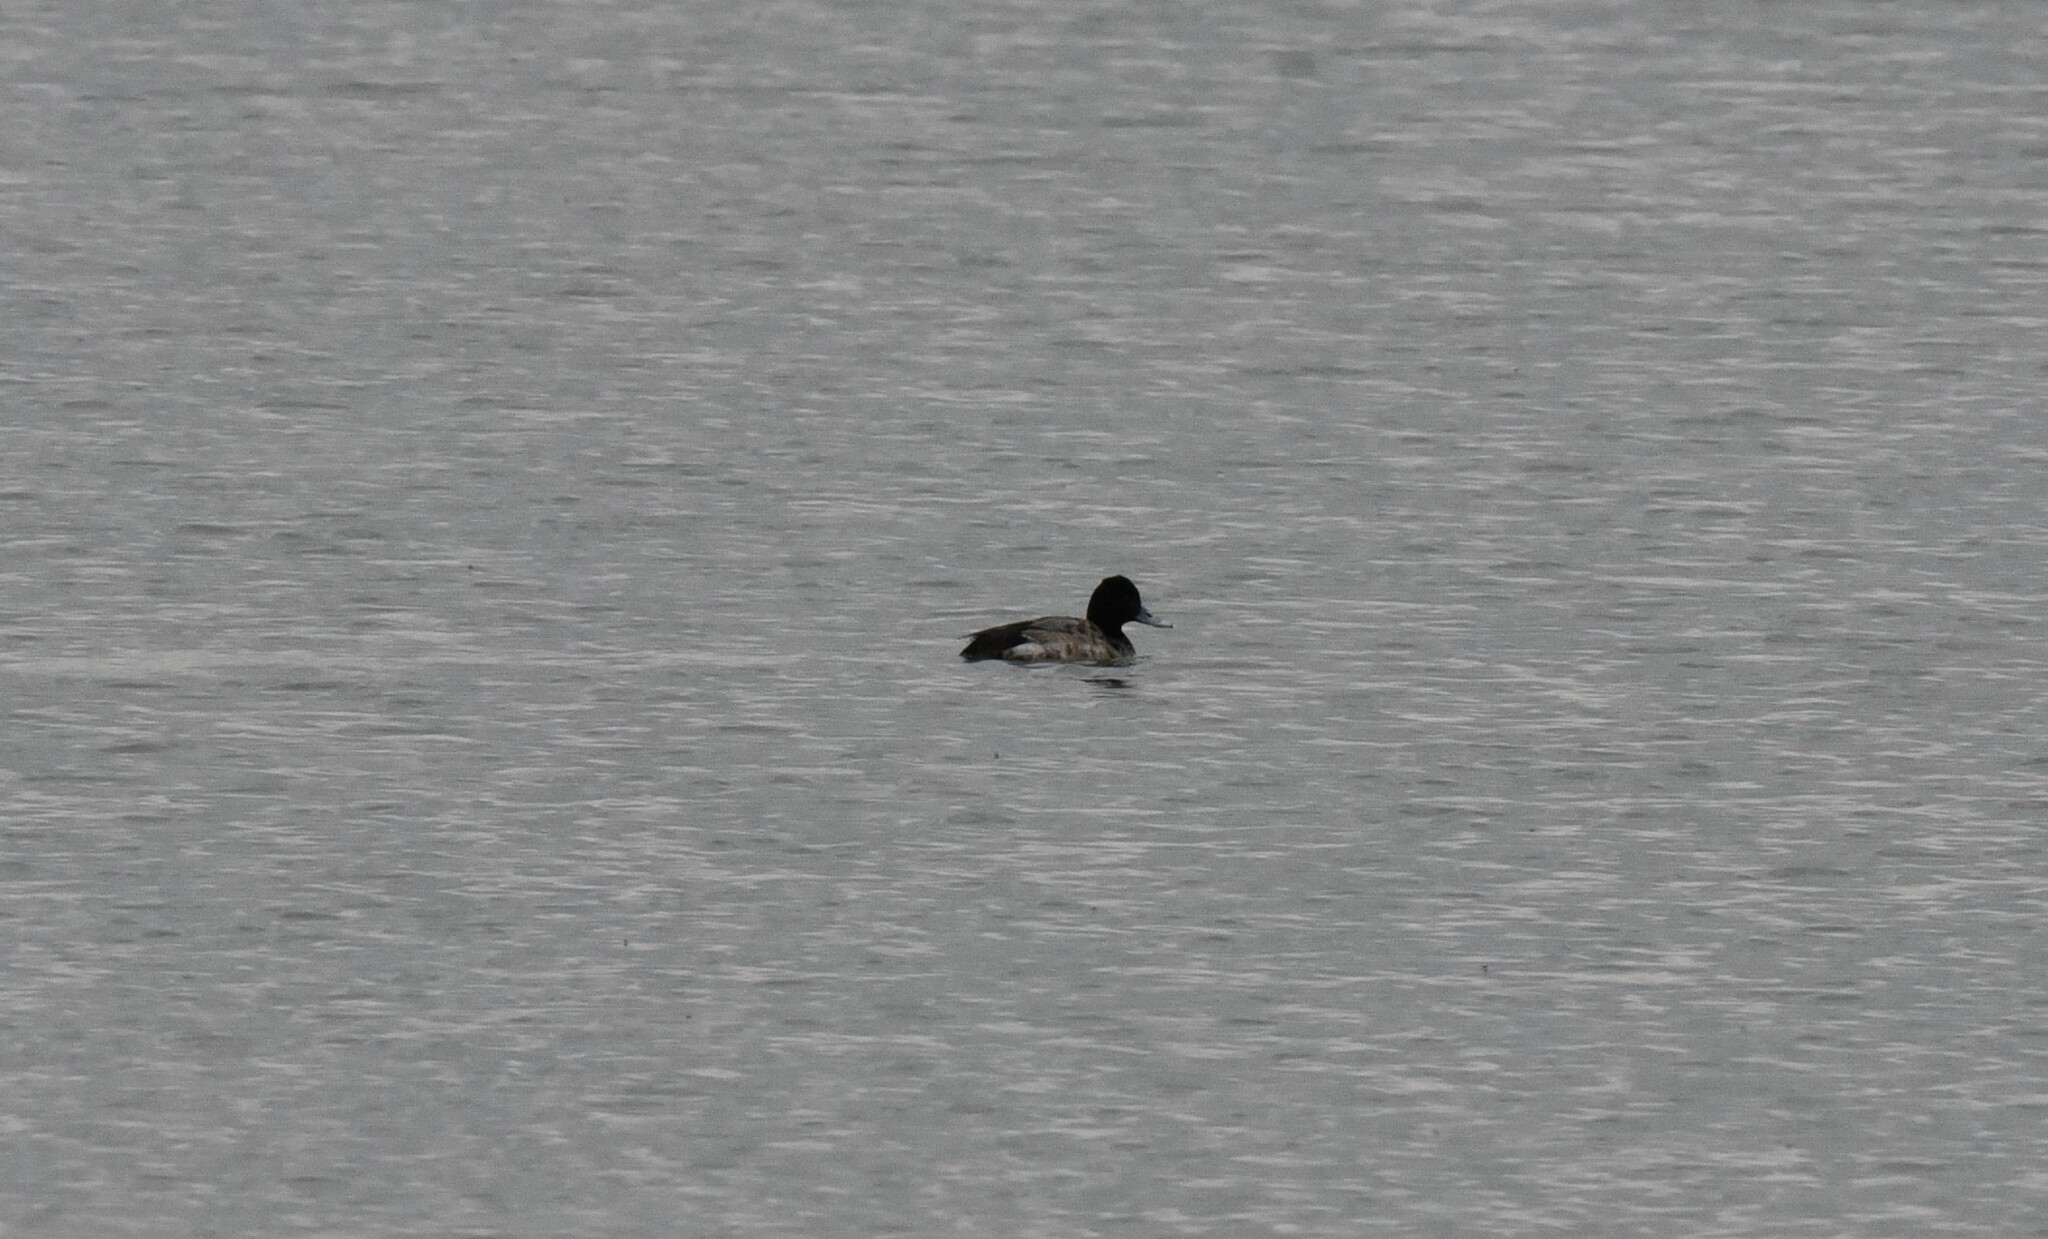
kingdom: Animalia
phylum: Chordata
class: Aves
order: Anseriformes
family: Anatidae
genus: Aythya
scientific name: Aythya affinis
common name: Lesser scaup
